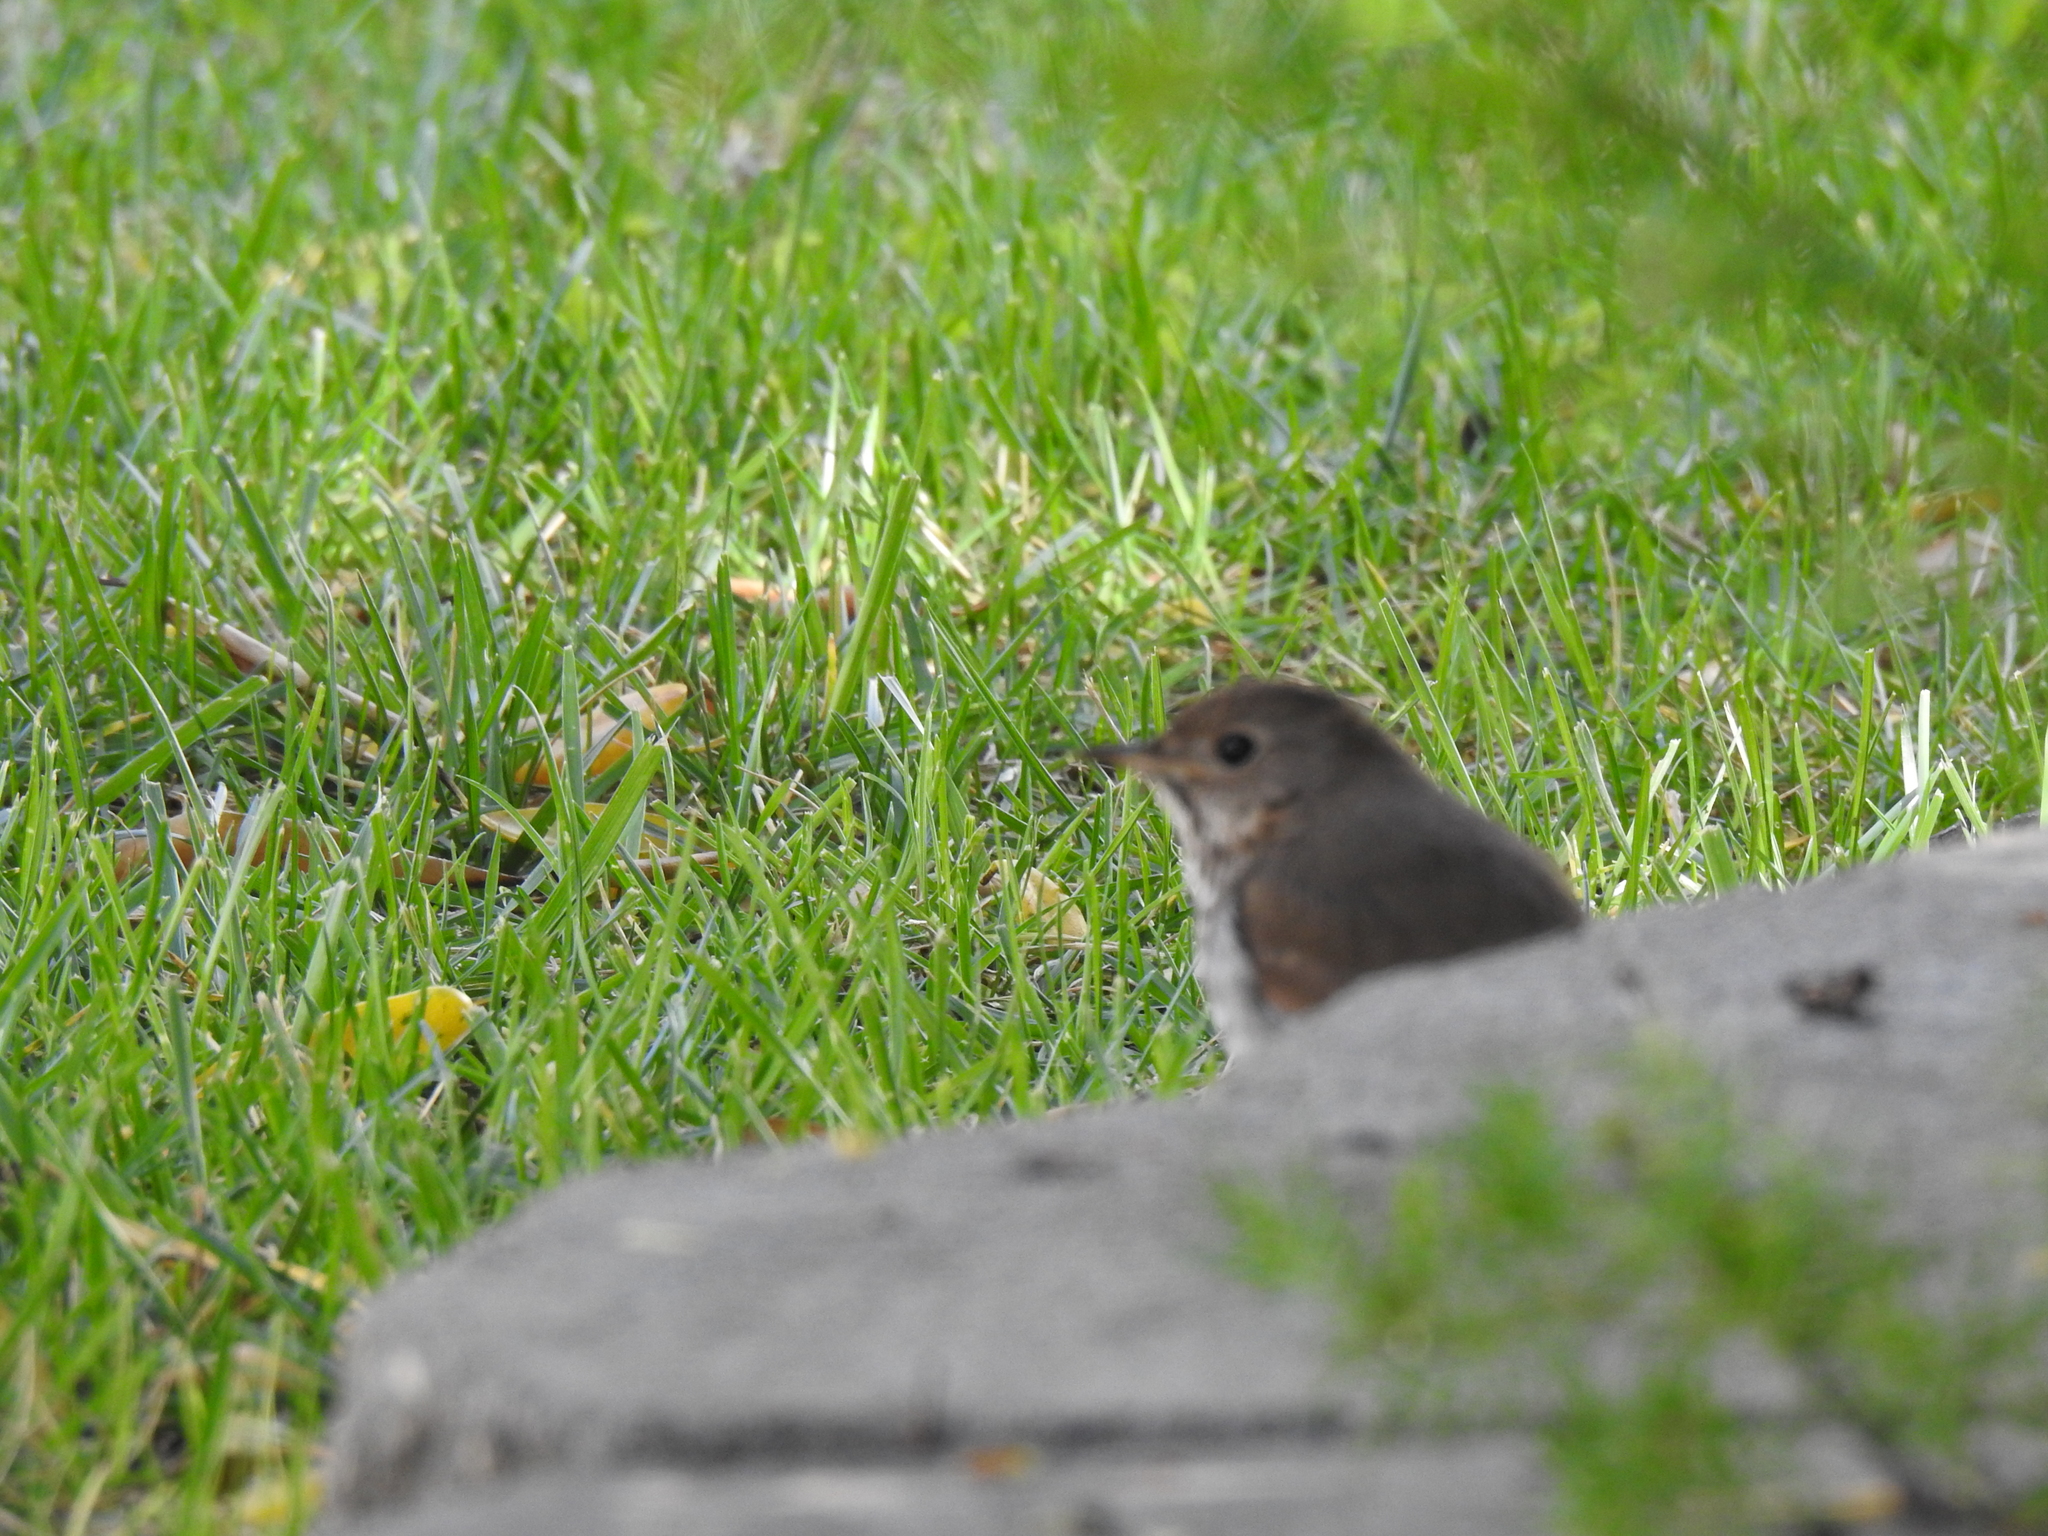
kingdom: Animalia
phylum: Chordata
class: Aves
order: Passeriformes
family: Turdidae
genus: Catharus
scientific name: Catharus guttatus
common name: Hermit thrush
